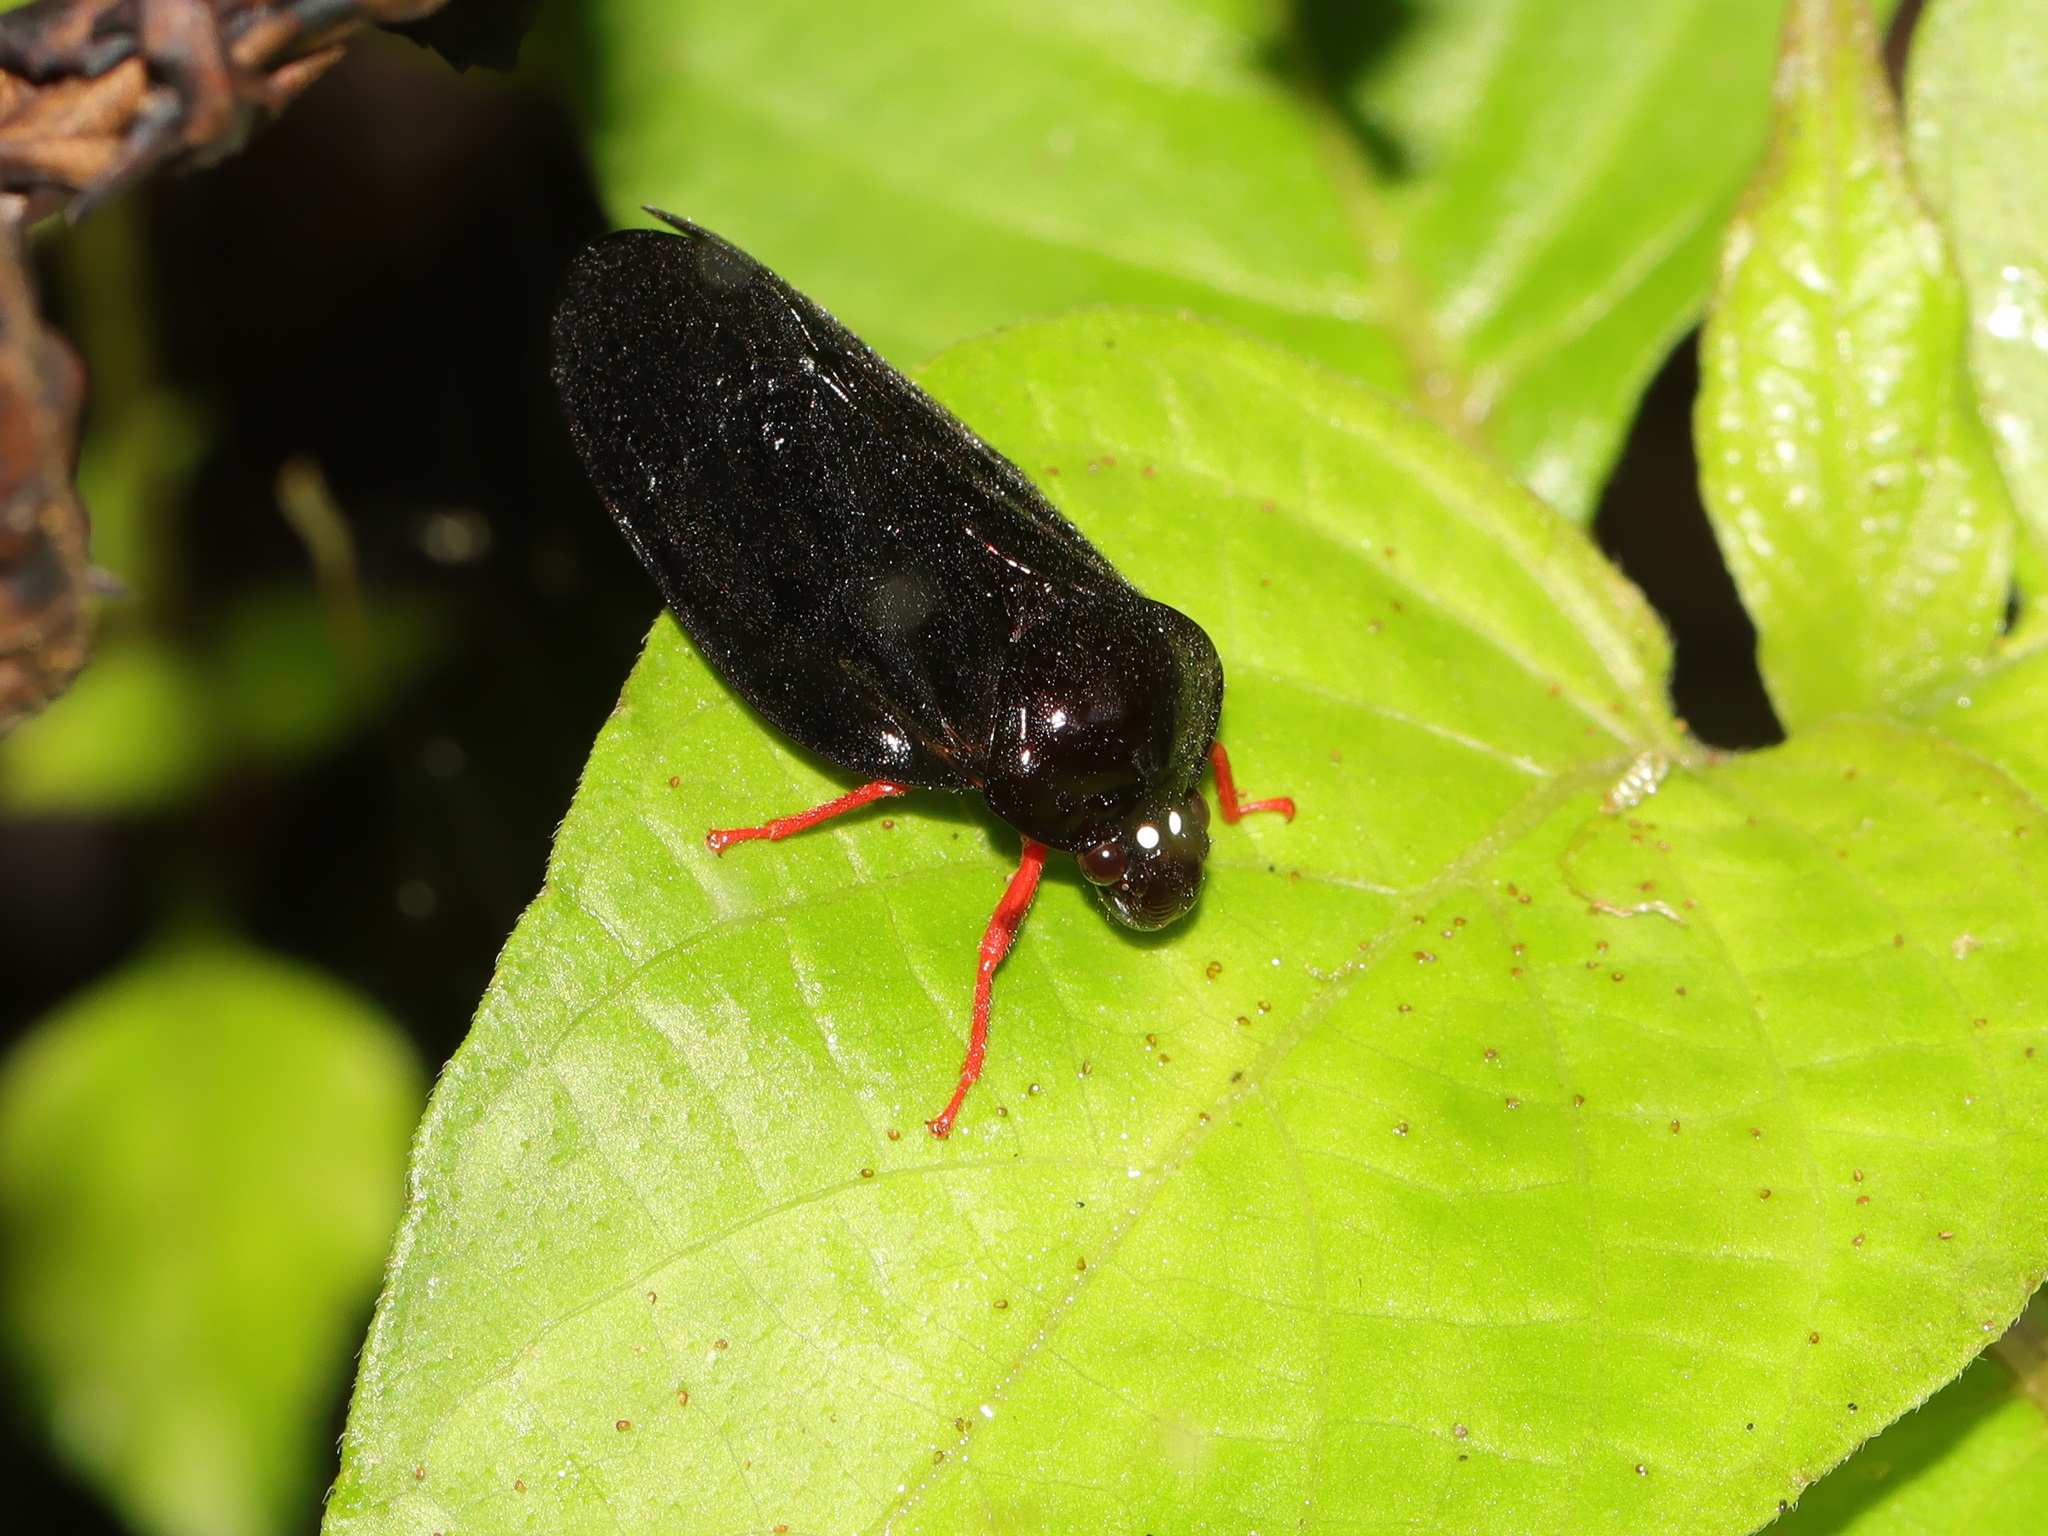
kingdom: Animalia
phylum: Arthropoda
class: Insecta
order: Hemiptera
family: Cercopidae
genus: Simeliria
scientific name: Simeliria viridans
